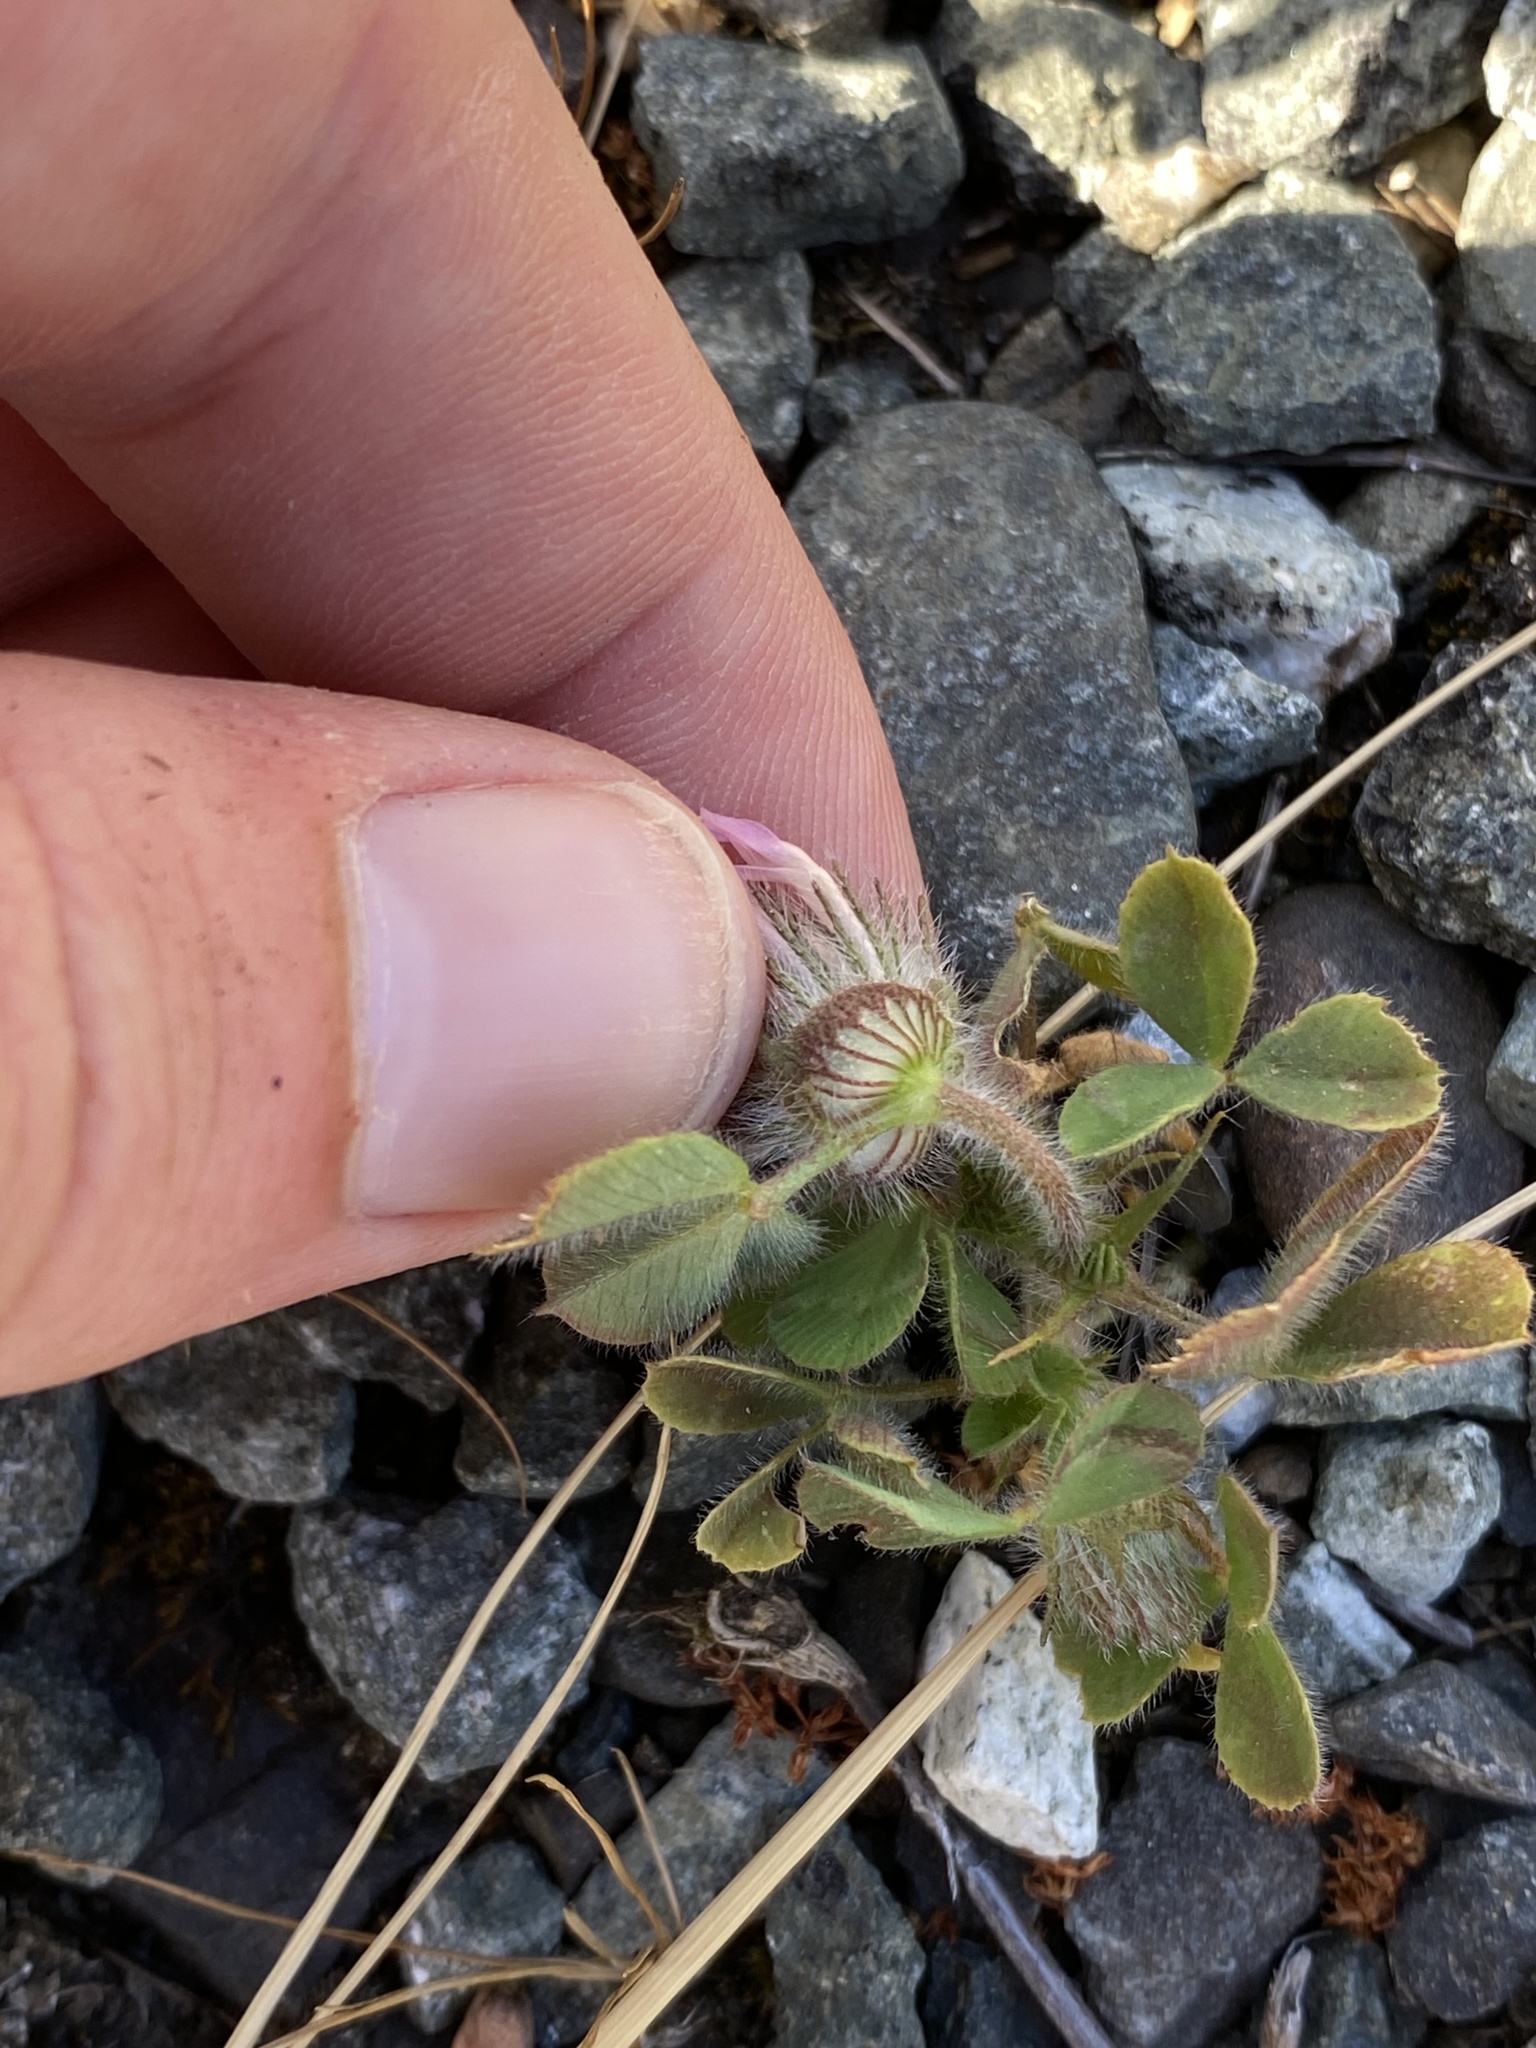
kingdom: Plantae
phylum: Tracheophyta
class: Magnoliopsida
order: Fabales
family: Fabaceae
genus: Trifolium
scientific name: Trifolium hirtum
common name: Rose clover
